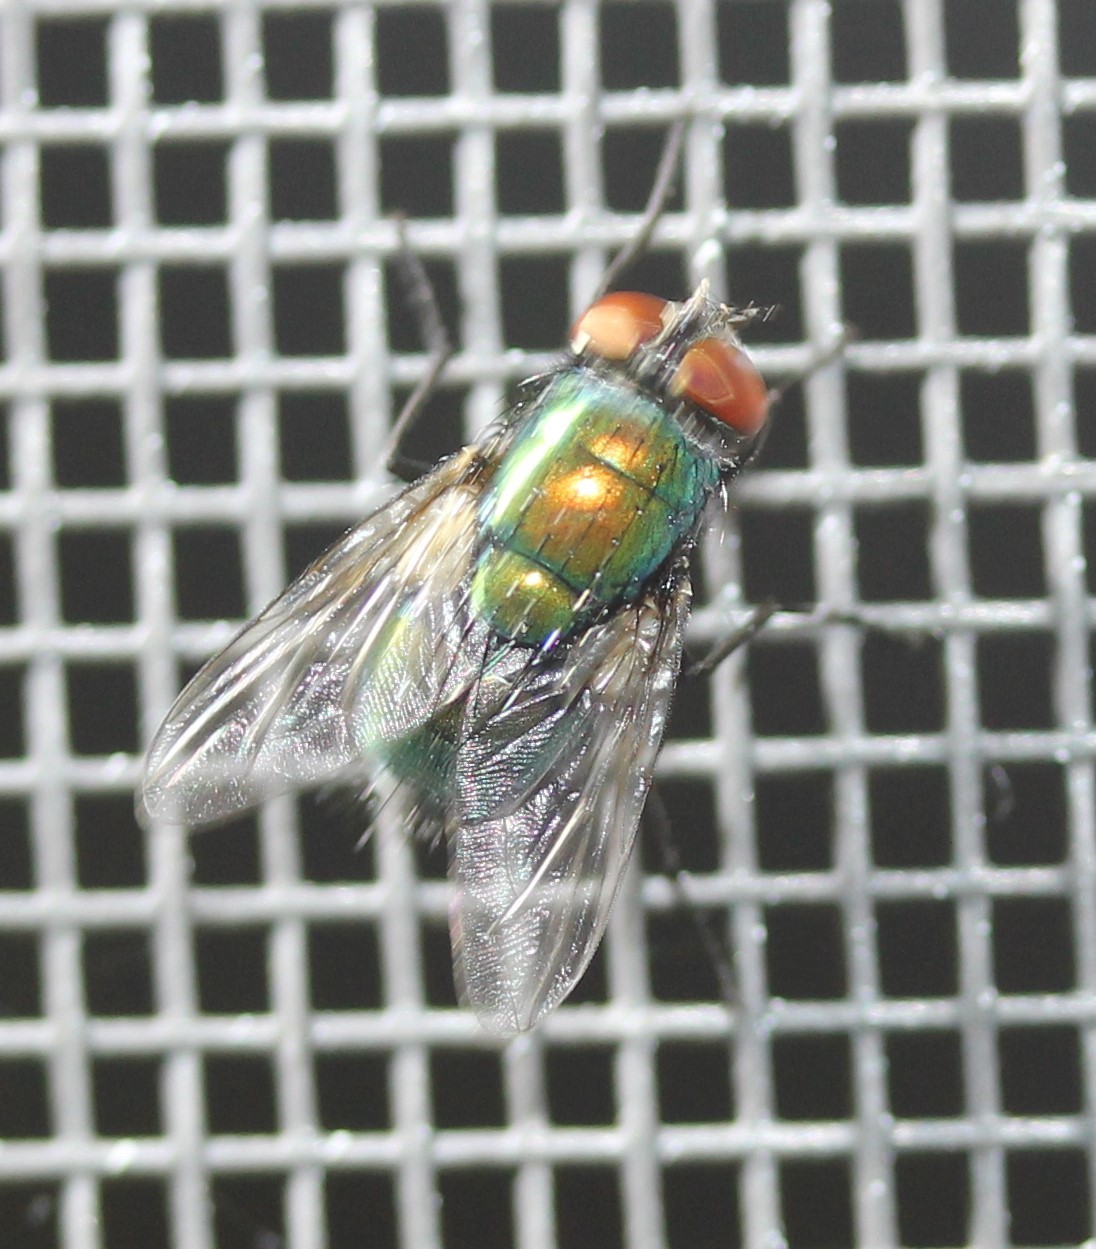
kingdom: Animalia
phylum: Arthropoda
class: Insecta
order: Diptera
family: Calliphoridae
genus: Lucilia
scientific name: Lucilia sericata
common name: Blow fly
